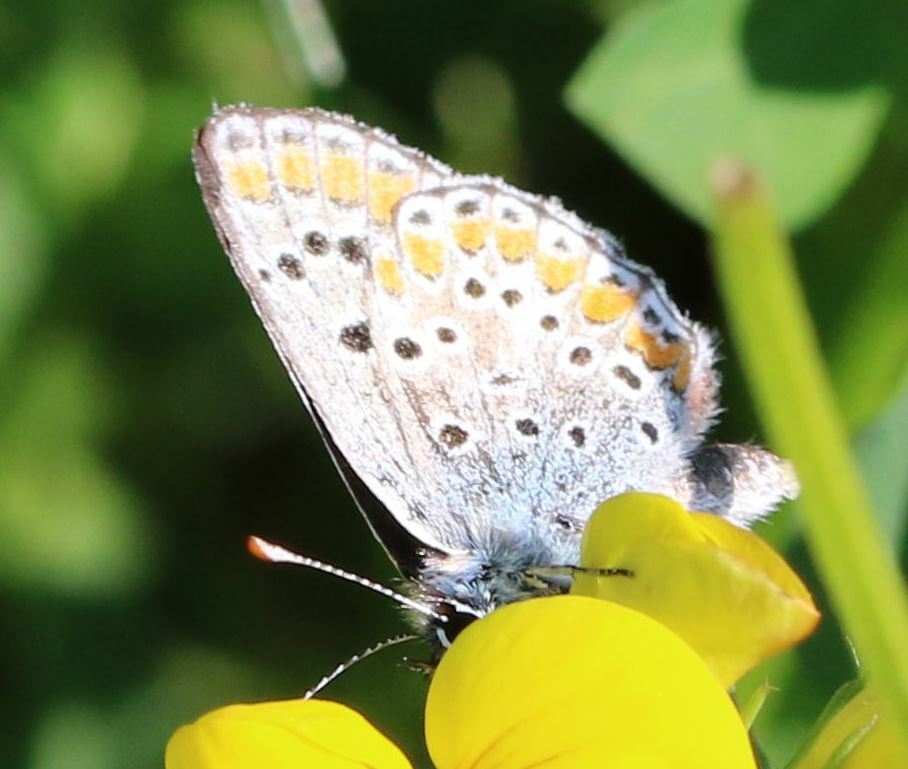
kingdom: Animalia
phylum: Arthropoda
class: Insecta
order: Lepidoptera
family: Lycaenidae
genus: Aricia
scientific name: Aricia agestis
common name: Brown argus
